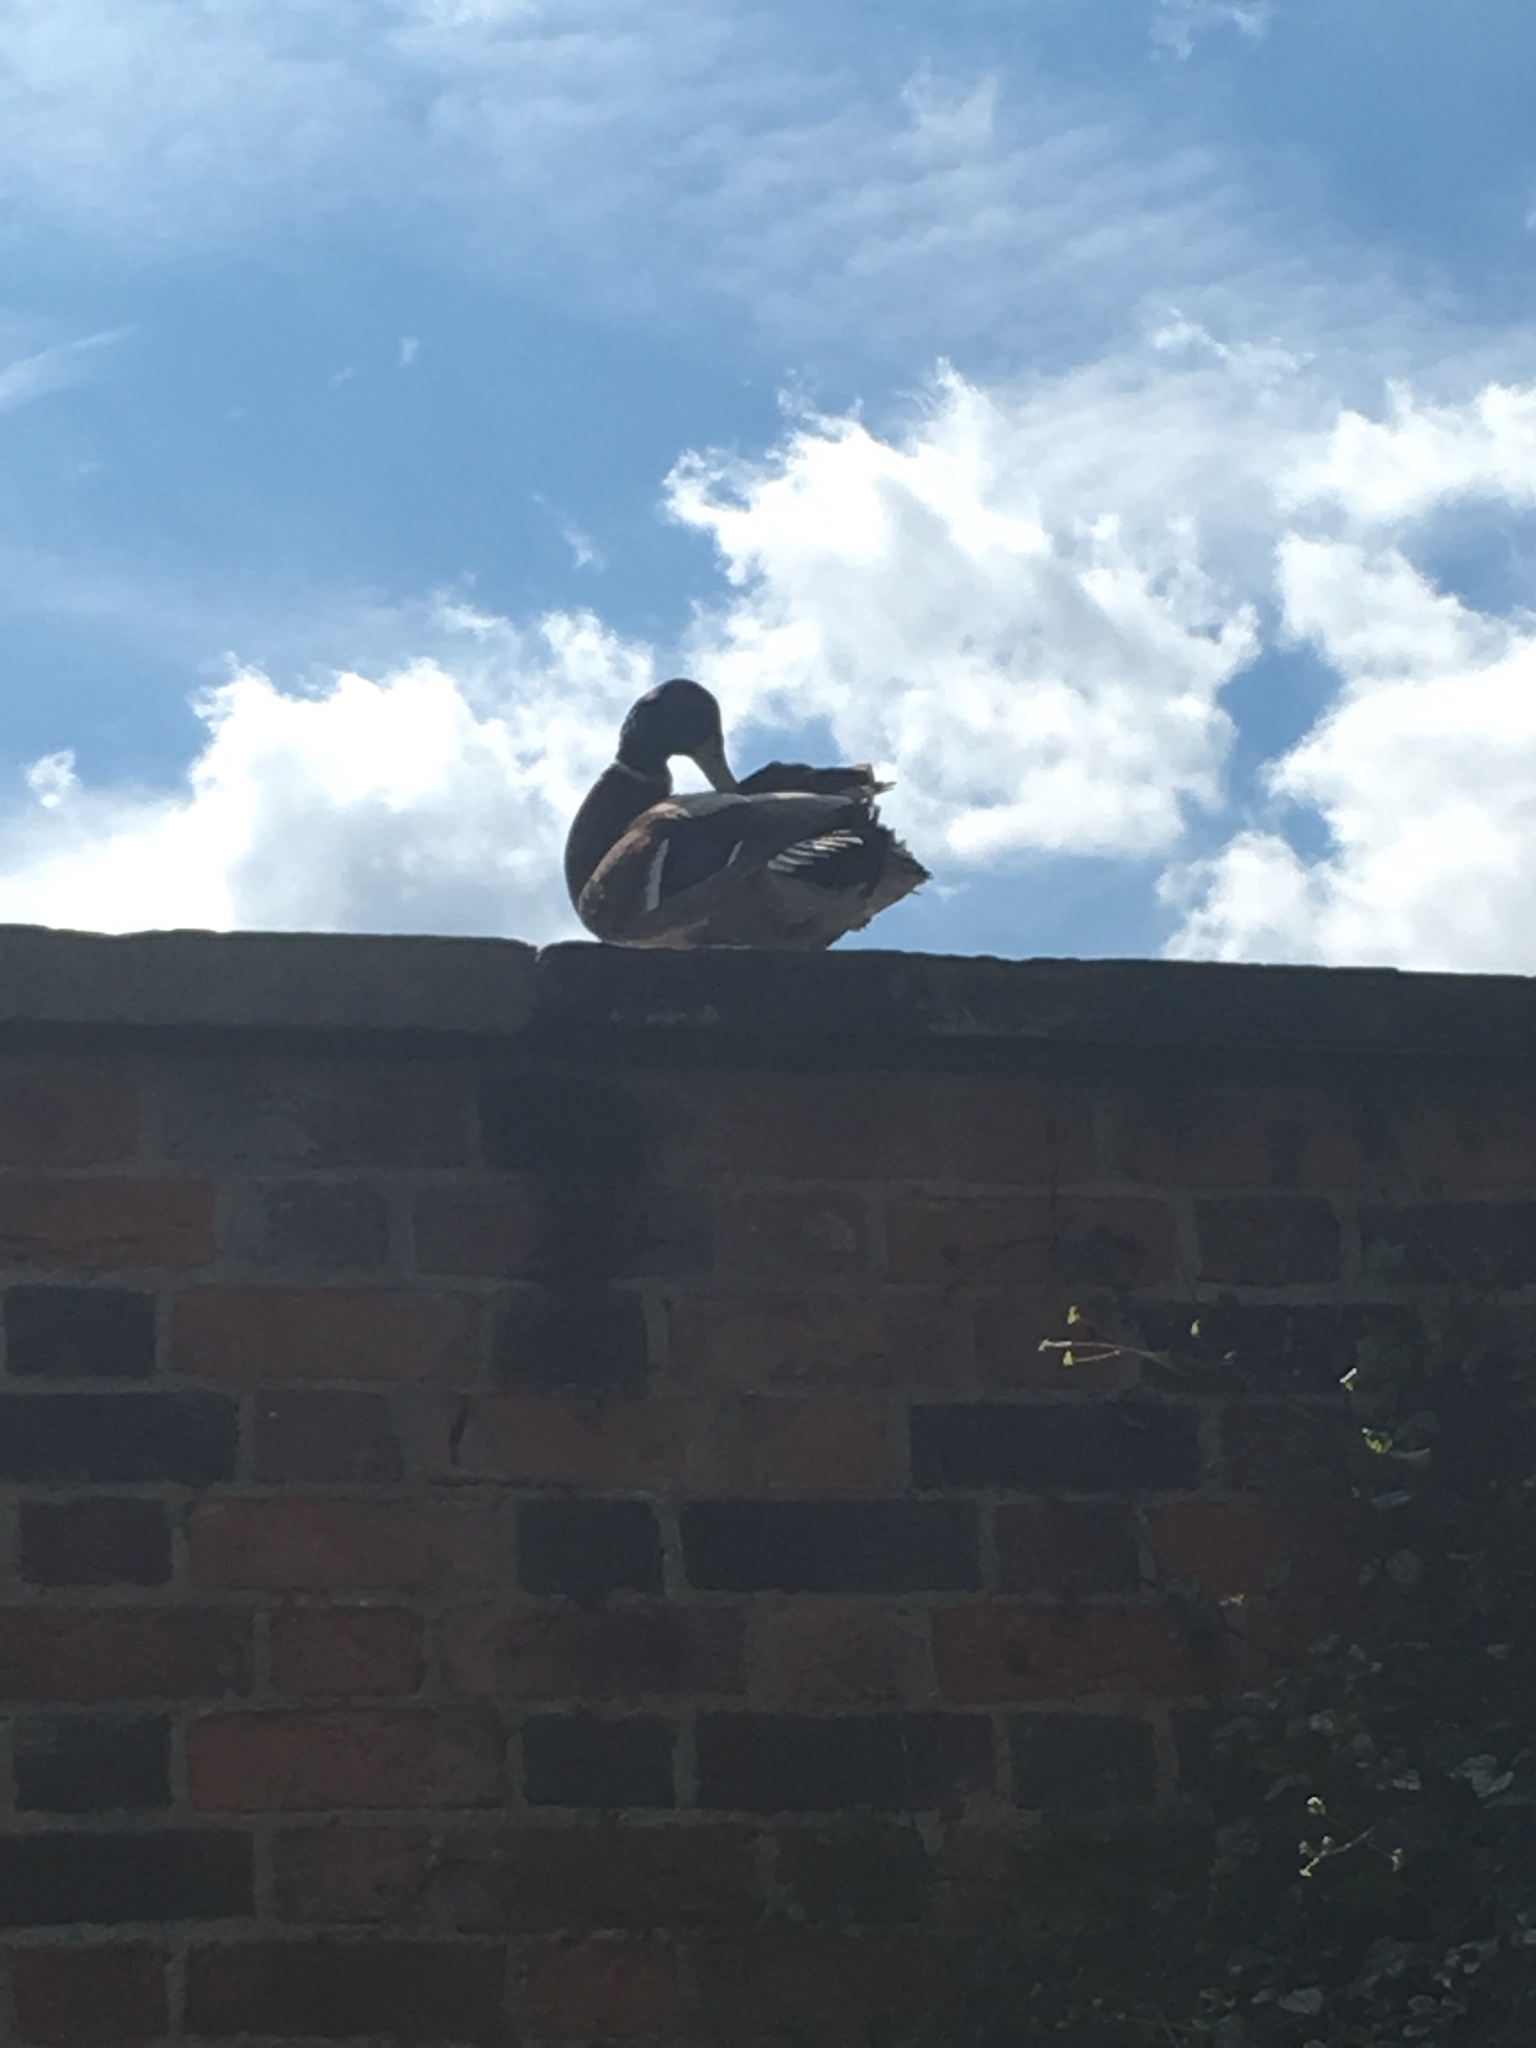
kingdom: Animalia
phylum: Chordata
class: Aves
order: Anseriformes
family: Anatidae
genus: Anas
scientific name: Anas platyrhynchos
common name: Mallard
